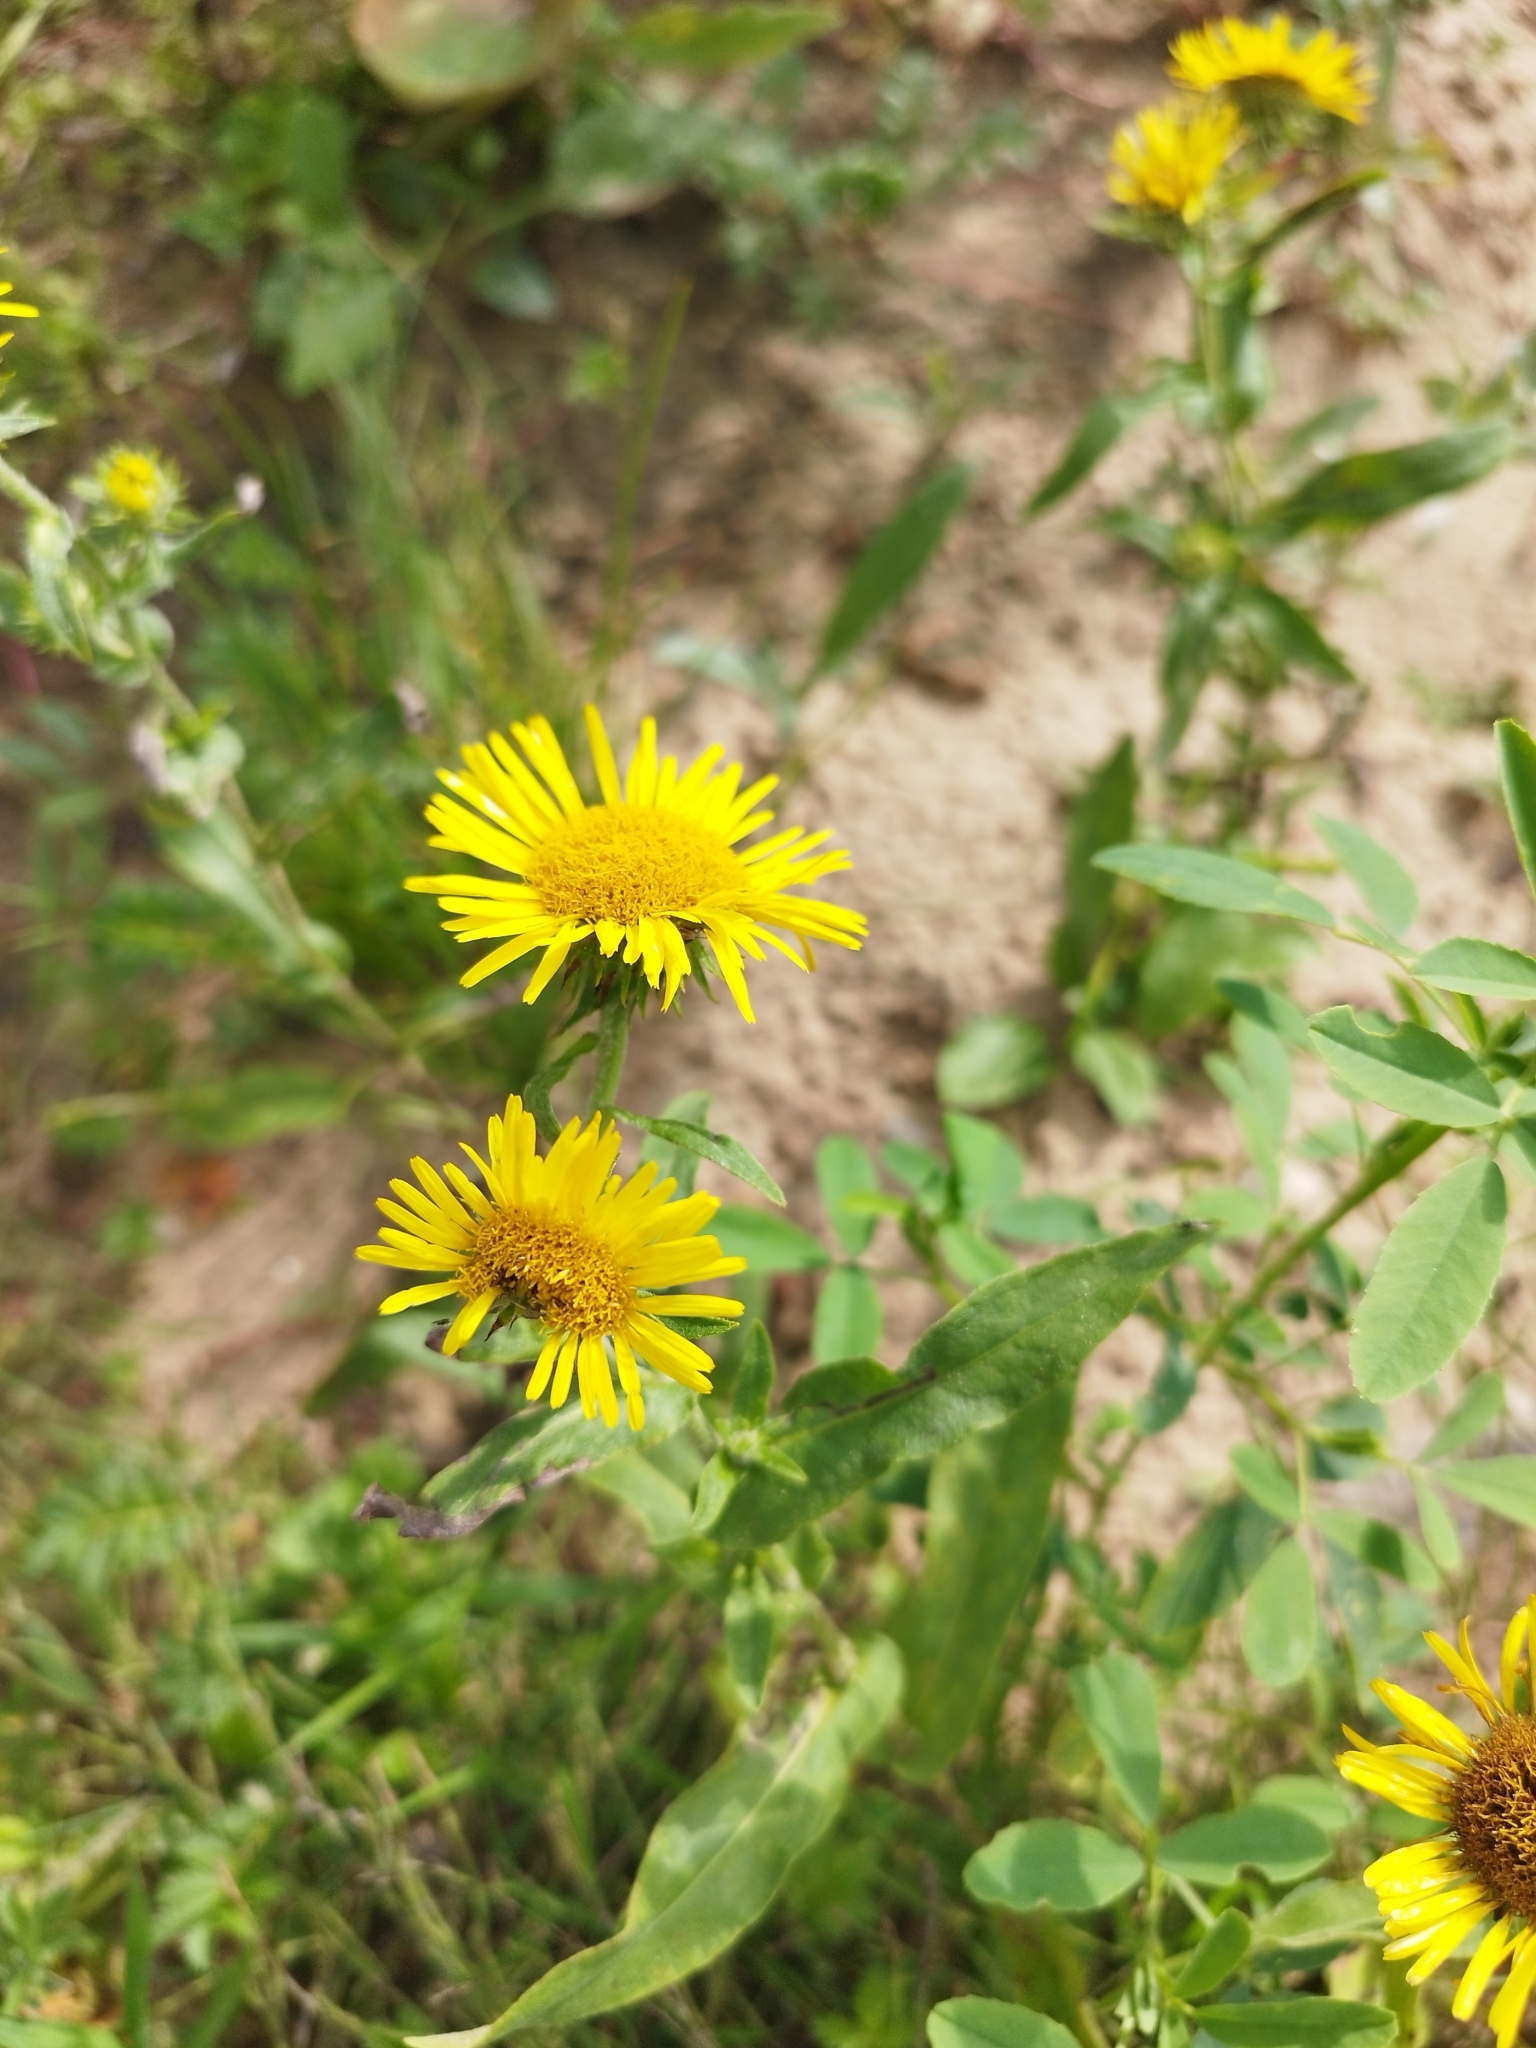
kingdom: Plantae
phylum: Tracheophyta
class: Magnoliopsida
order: Asterales
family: Asteraceae
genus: Pentanema
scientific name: Pentanema britannicum
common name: British elecampane
